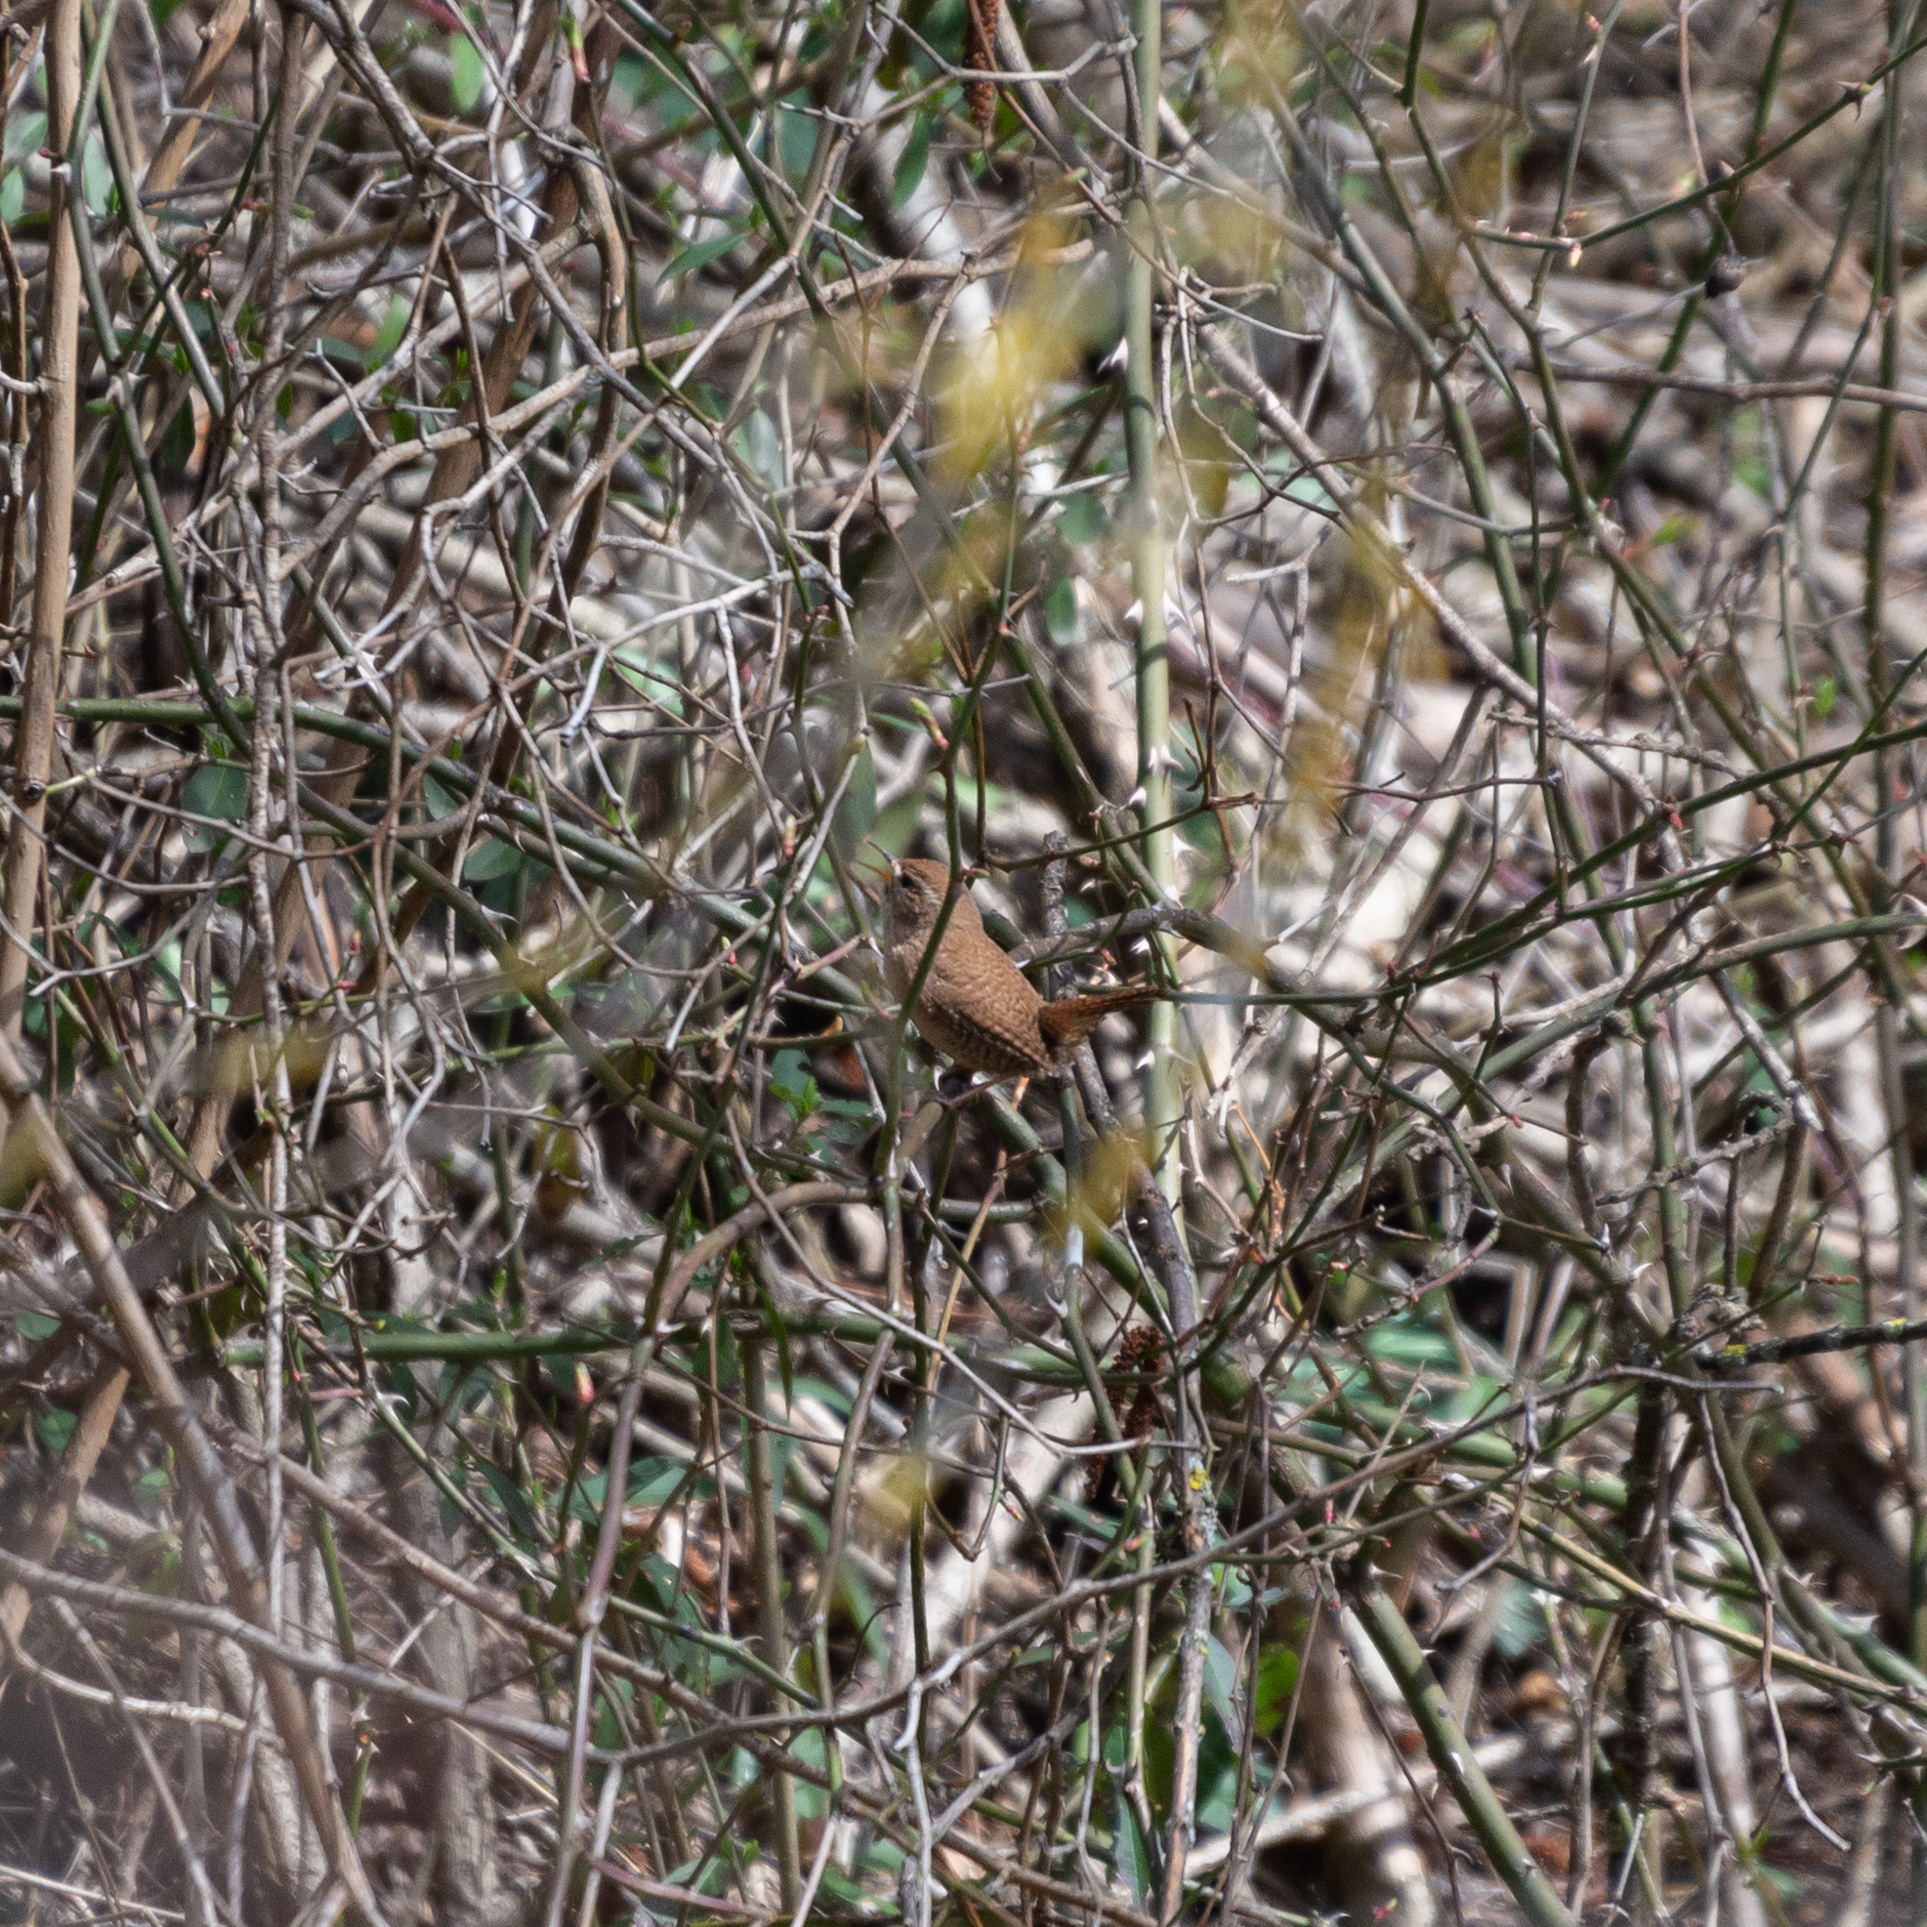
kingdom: Animalia
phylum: Chordata
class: Aves
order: Passeriformes
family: Troglodytidae
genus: Troglodytes
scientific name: Troglodytes troglodytes
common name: Eurasian wren
